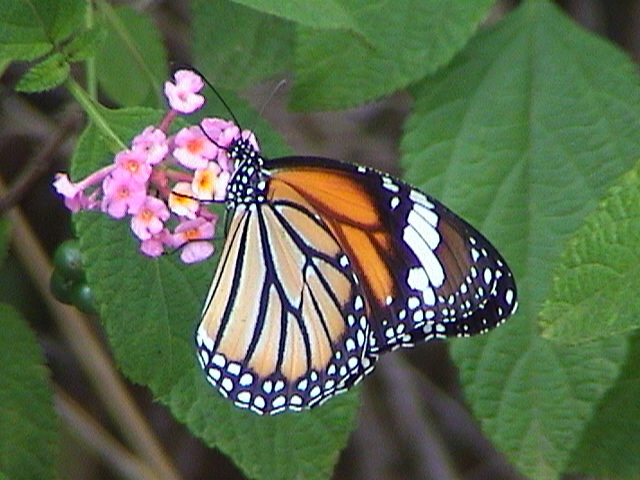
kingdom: Animalia
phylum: Arthropoda
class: Insecta
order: Lepidoptera
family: Nymphalidae
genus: Danaus
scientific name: Danaus genutia
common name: Common tiger butterfly
